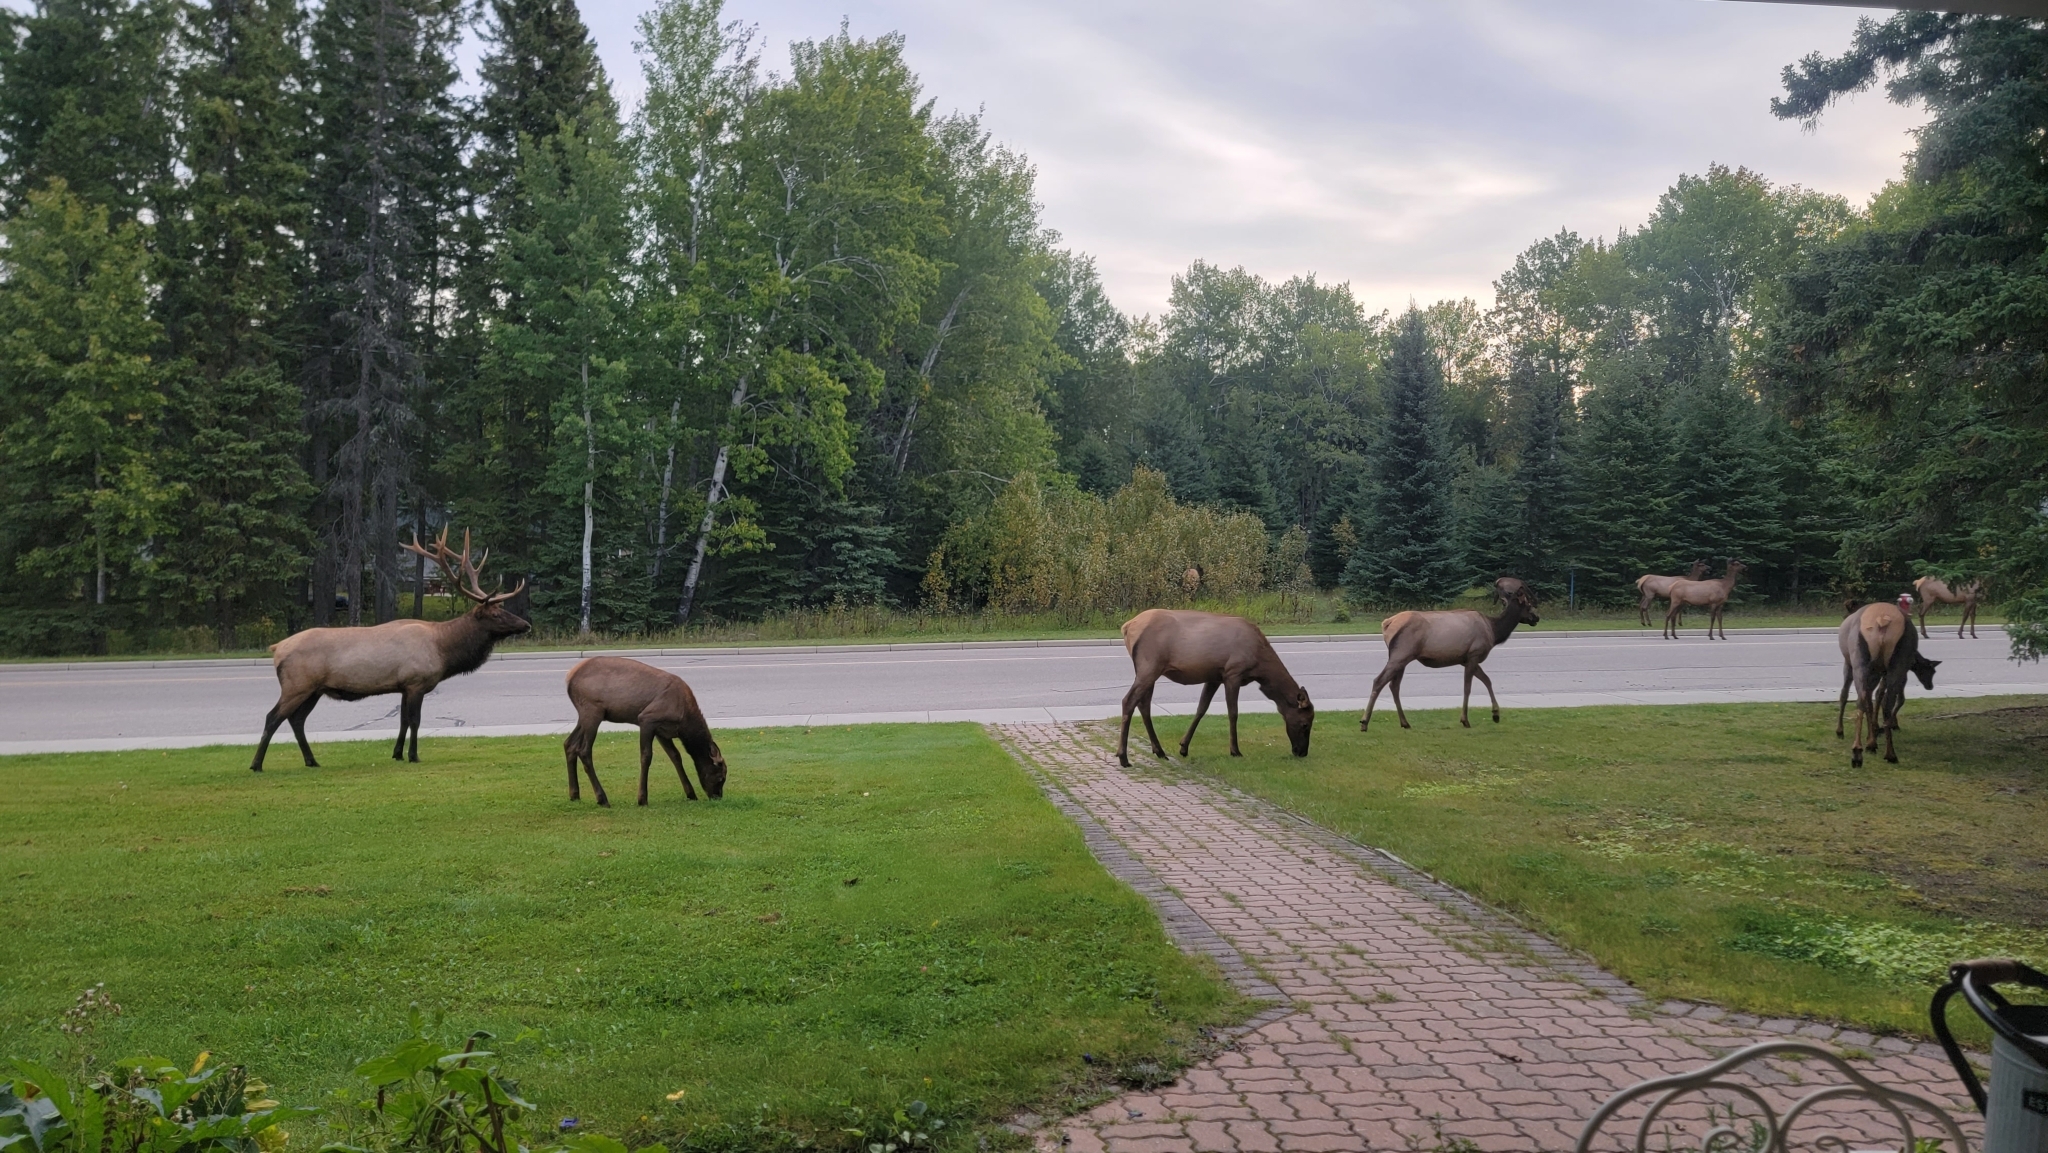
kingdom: Animalia
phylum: Chordata
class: Mammalia
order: Artiodactyla
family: Cervidae
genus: Cervus
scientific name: Cervus elaphus
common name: Red deer
